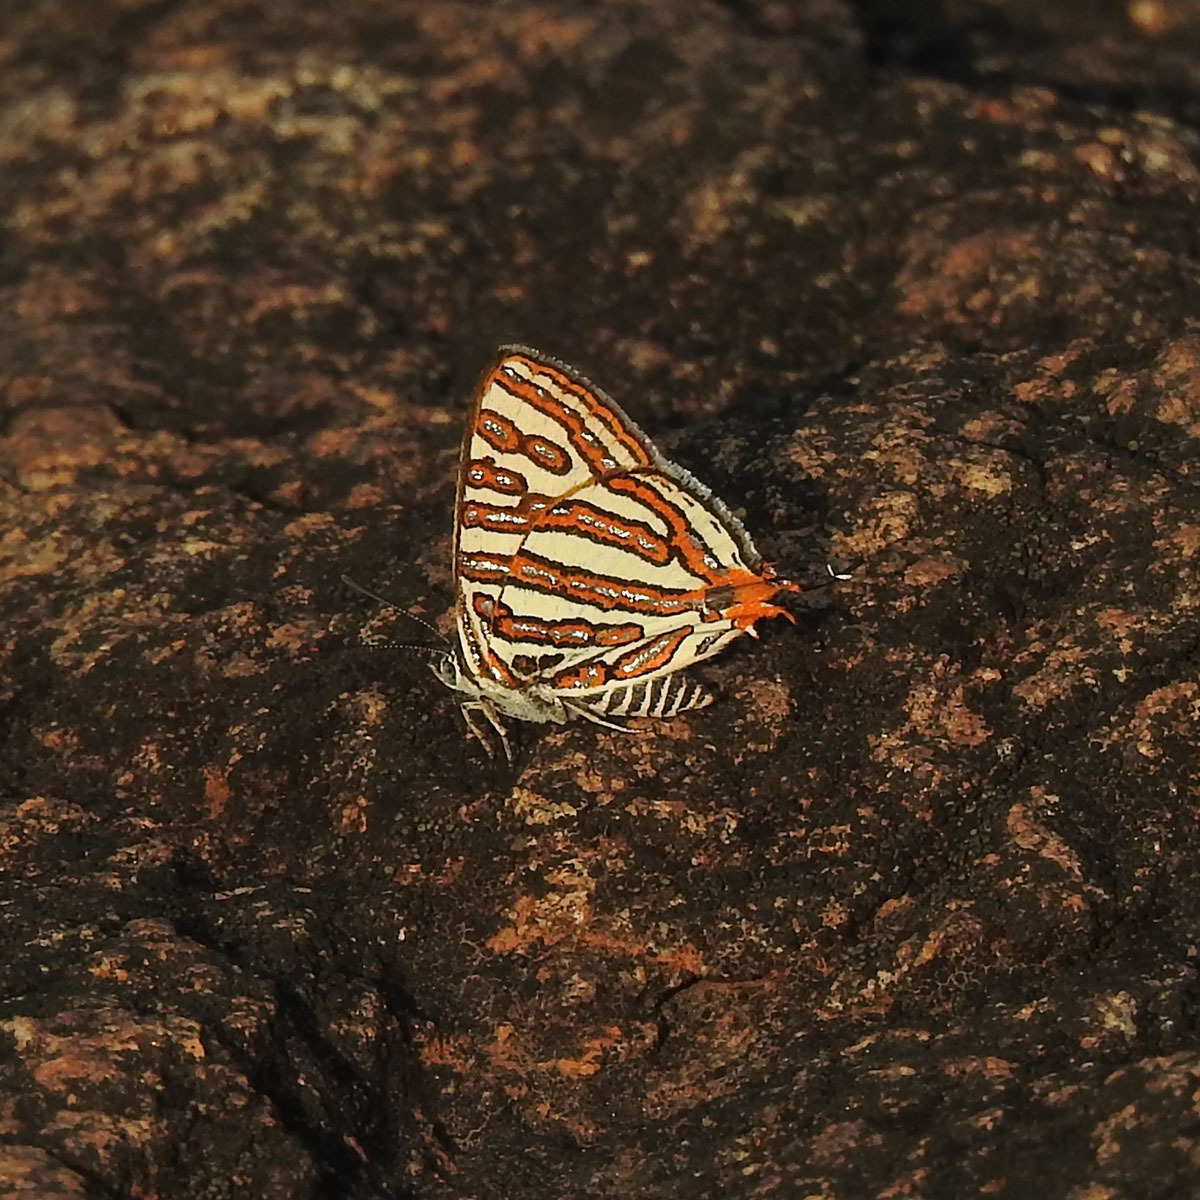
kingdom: Animalia
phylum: Arthropoda
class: Insecta
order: Lepidoptera
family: Lycaenidae
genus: Cigaritis
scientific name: Cigaritis vulcanus
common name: Common silverline
